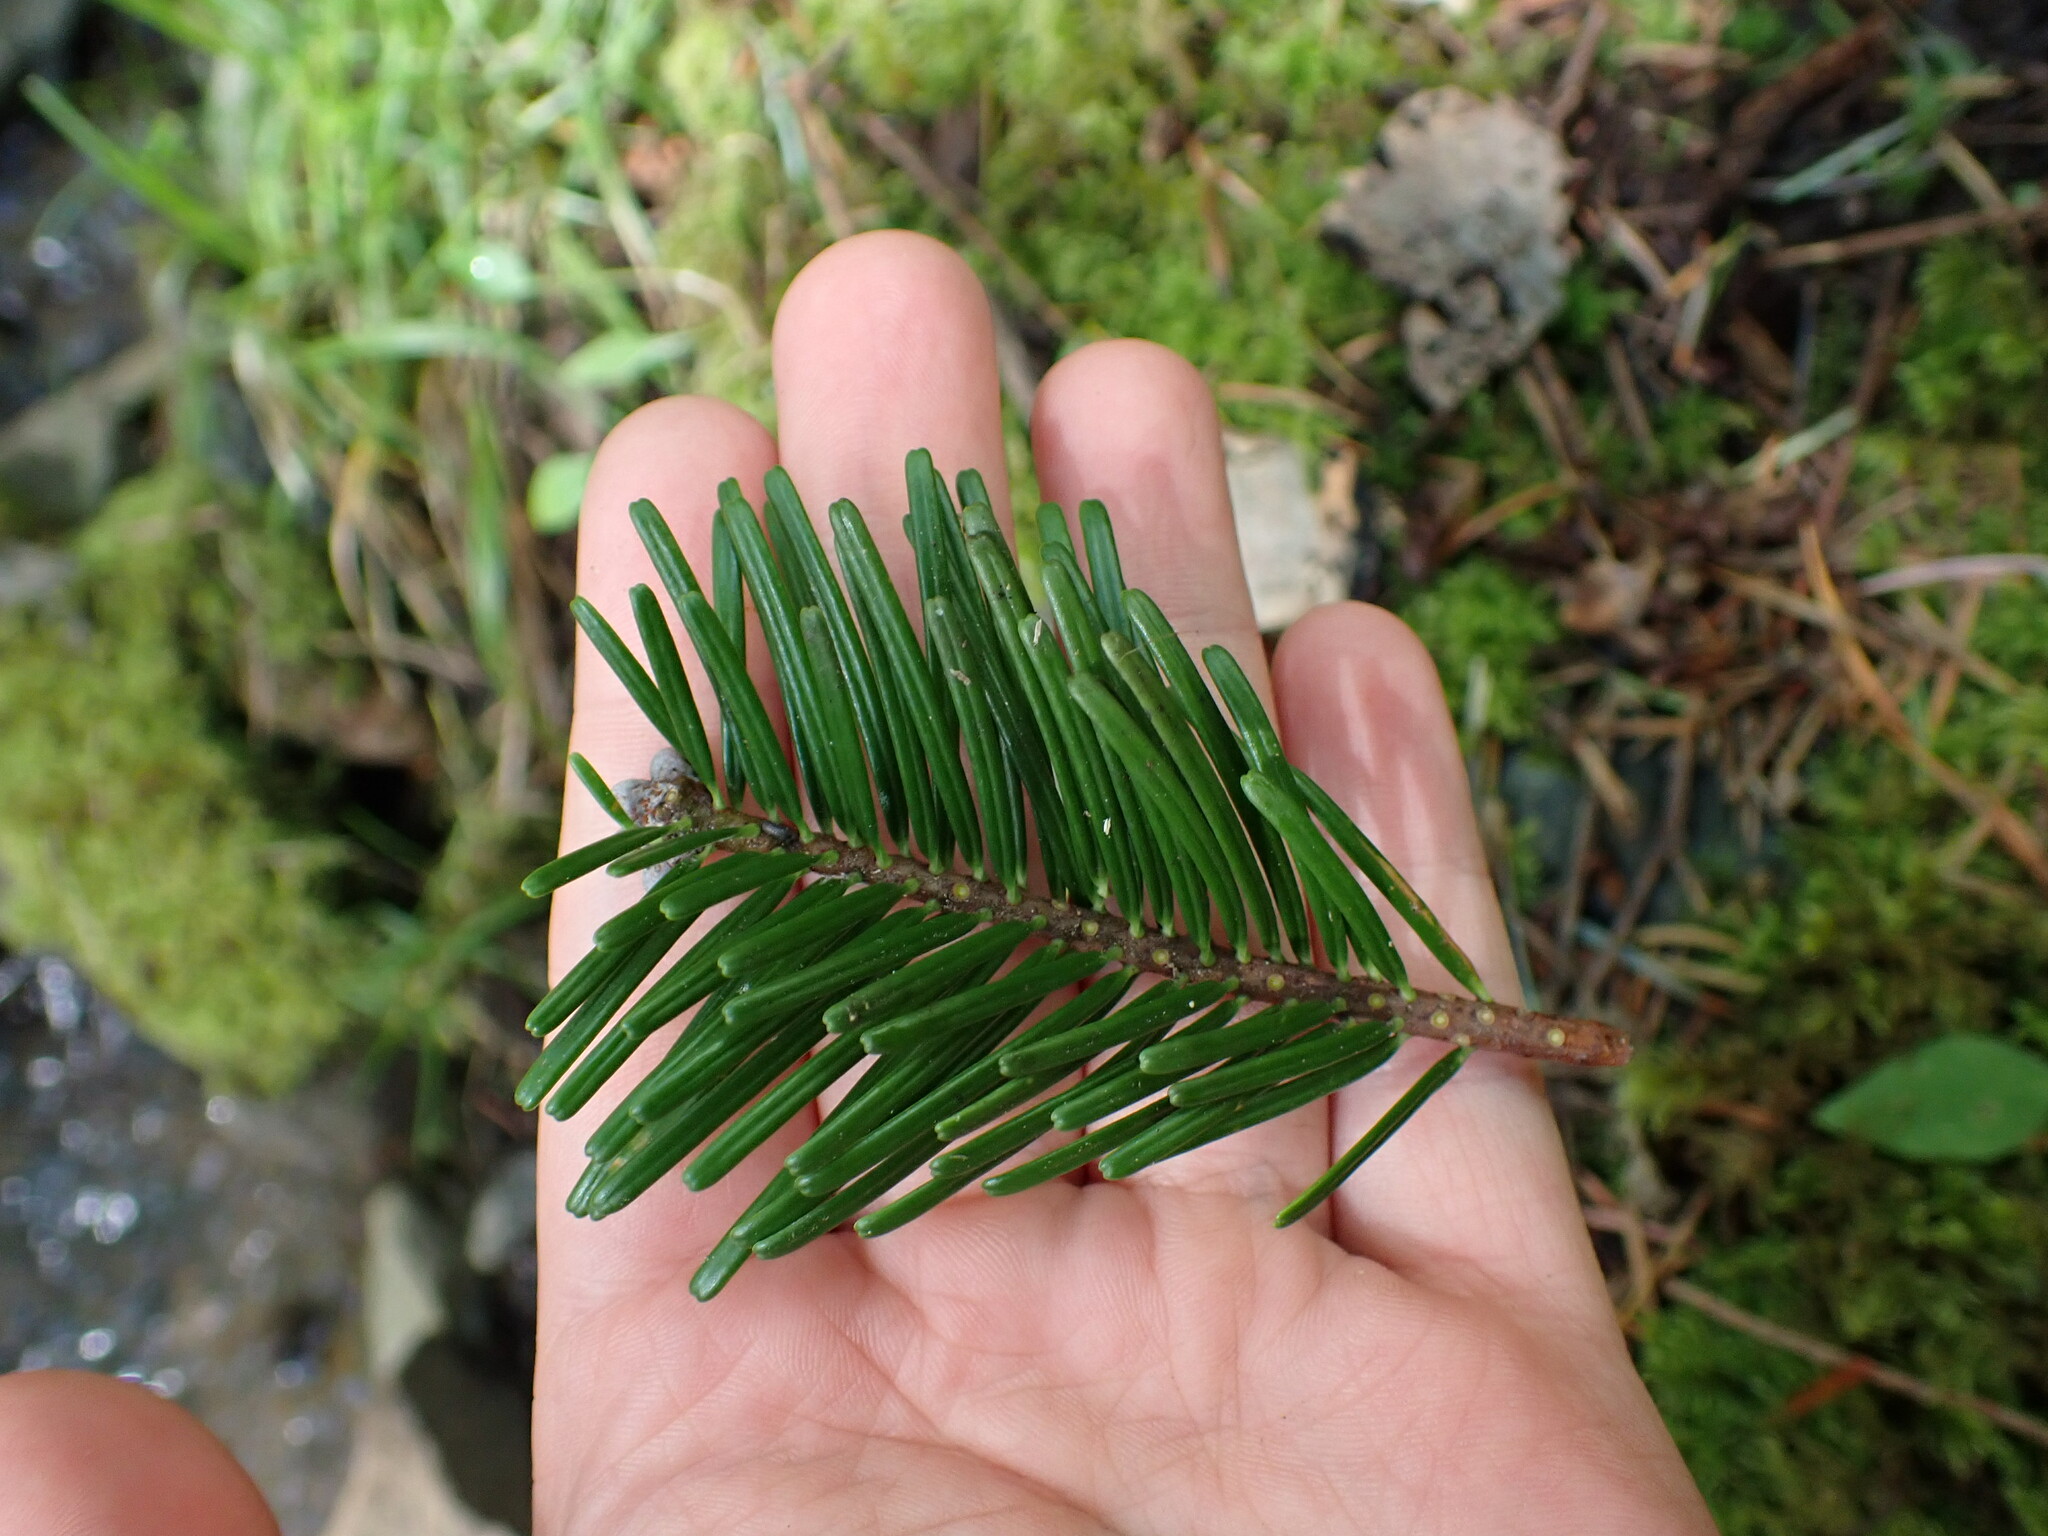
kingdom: Plantae
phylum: Tracheophyta
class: Pinopsida
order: Pinales
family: Pinaceae
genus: Abies
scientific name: Abies grandis
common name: Giant fir
